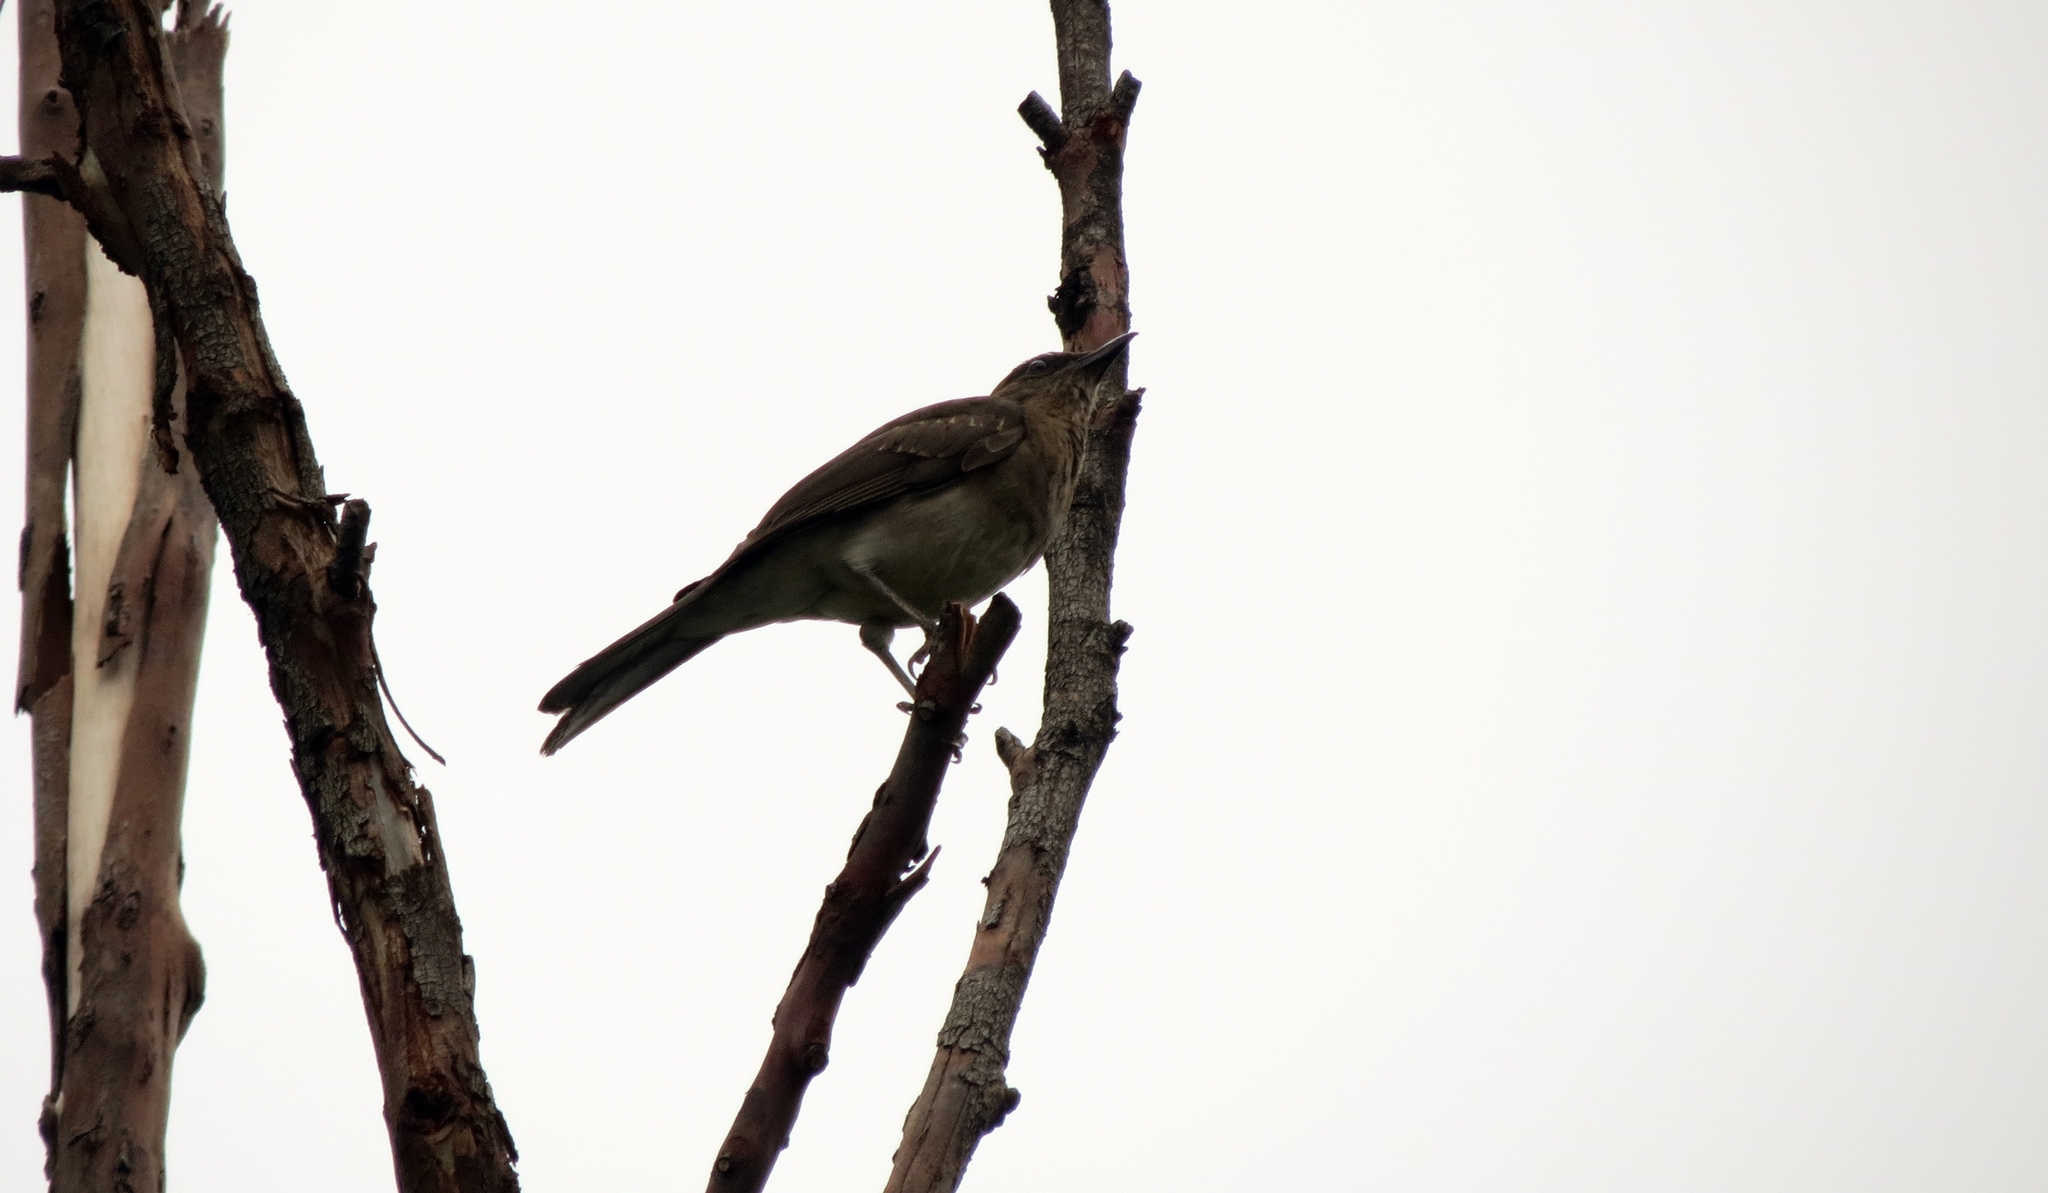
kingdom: Animalia
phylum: Chordata
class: Aves
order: Passeriformes
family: Turdidae
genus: Turdus
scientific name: Turdus ignobilis
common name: Black-billed thrush
